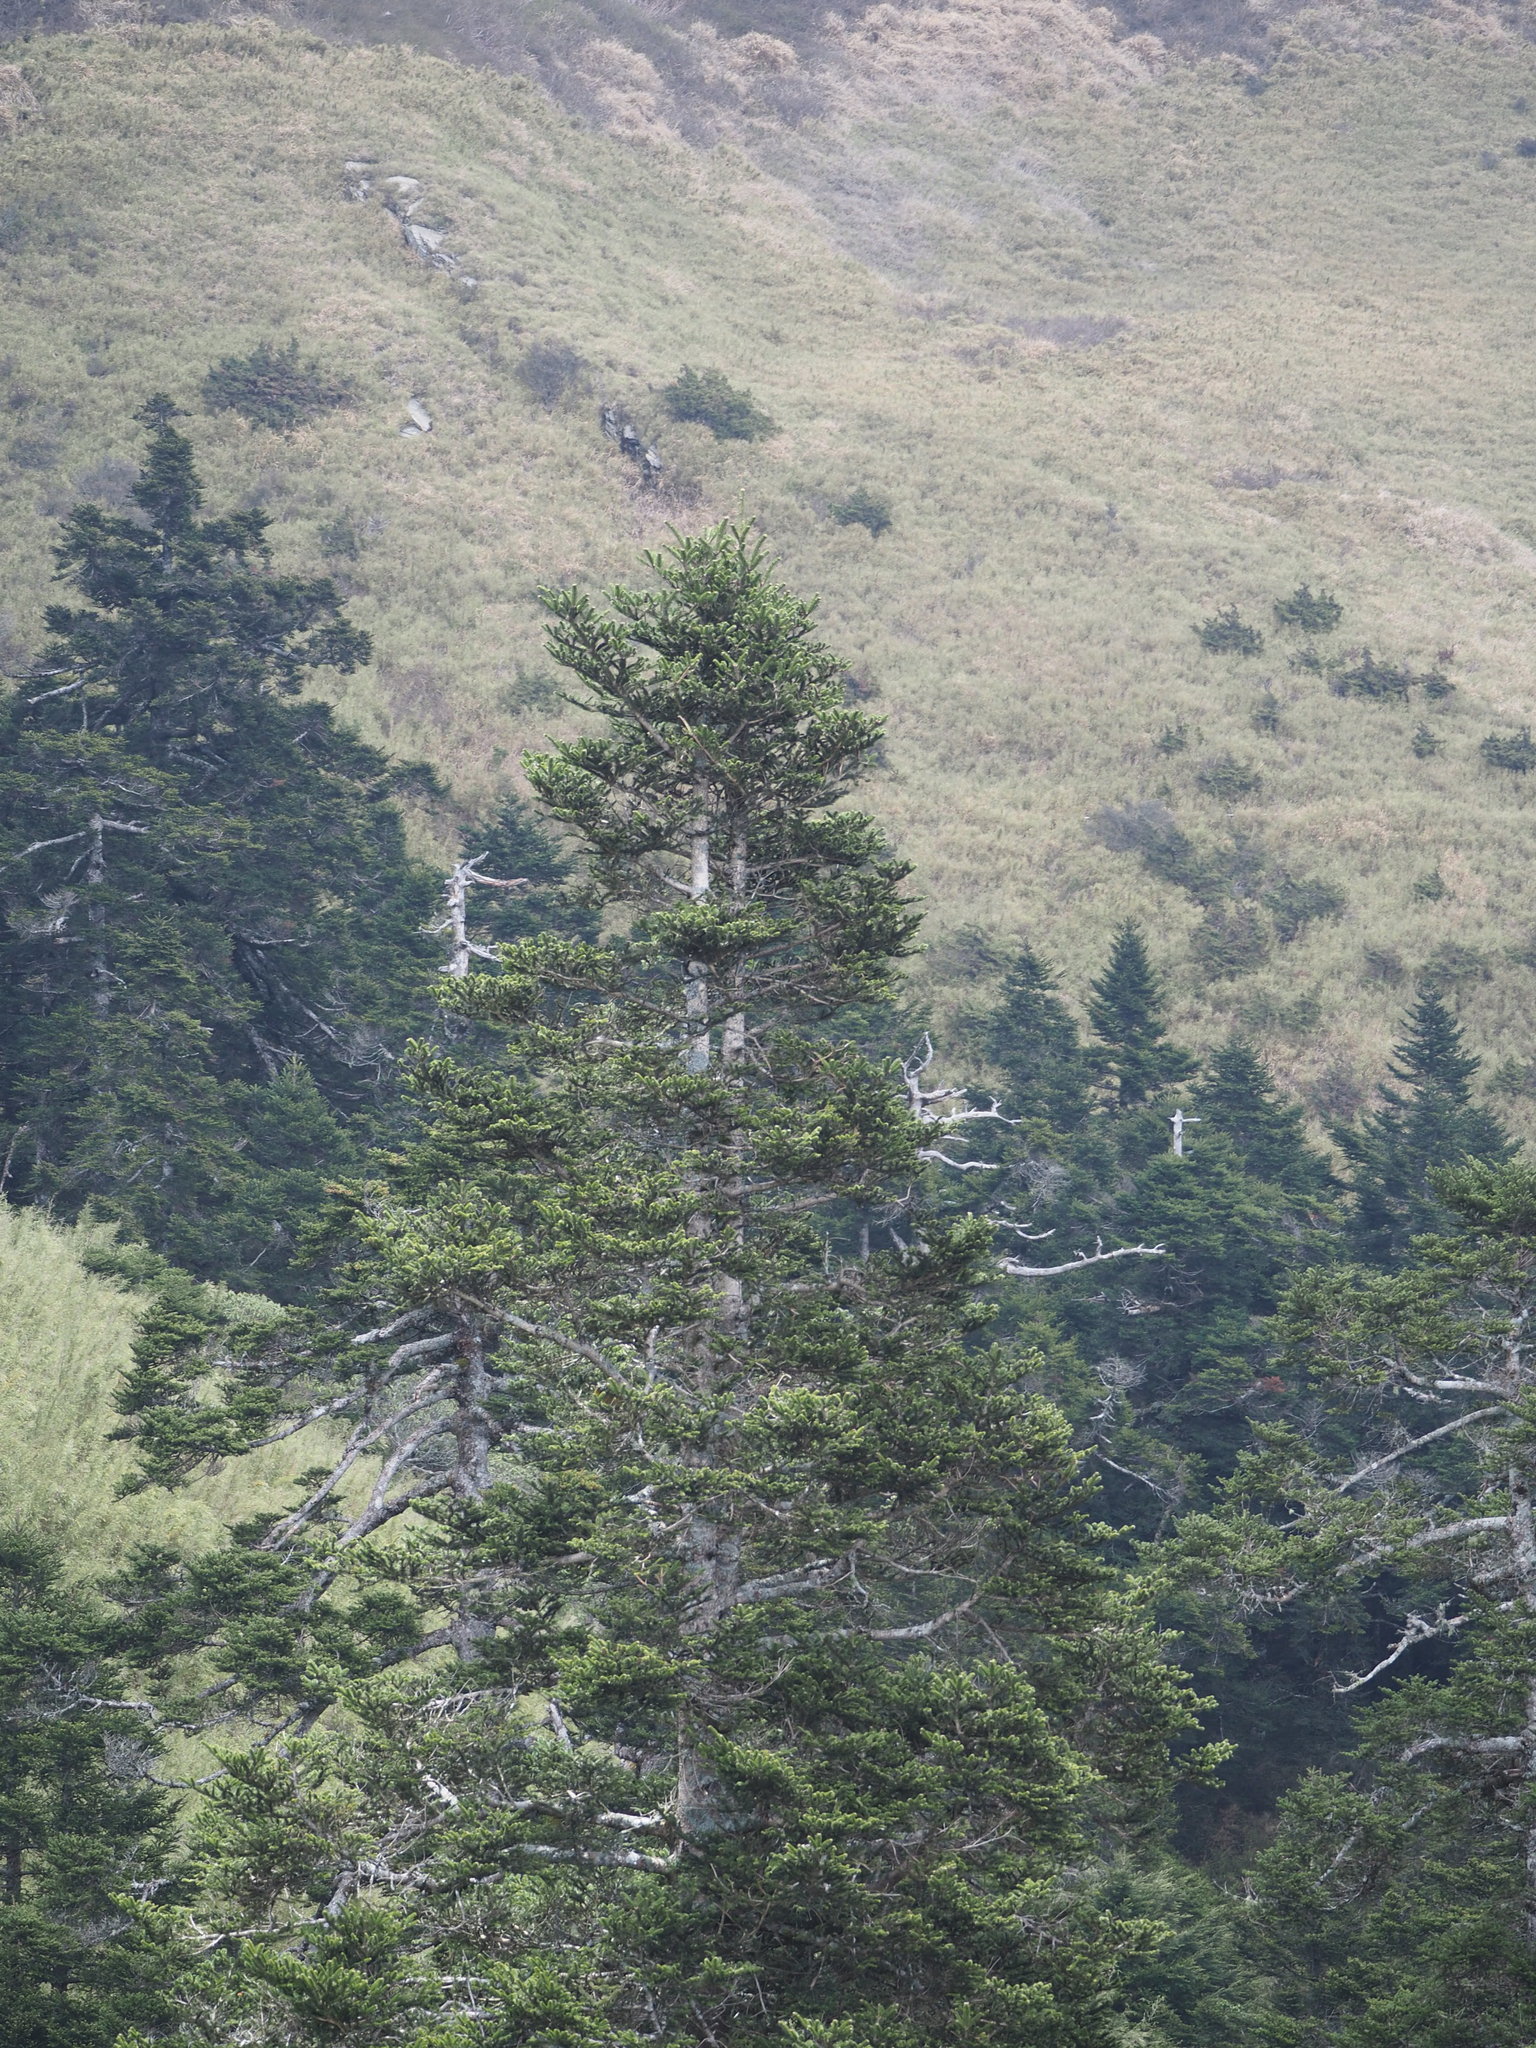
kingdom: Plantae
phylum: Tracheophyta
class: Pinopsida
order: Pinales
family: Pinaceae
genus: Abies
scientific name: Abies kawakamii
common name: Taiwan fir
